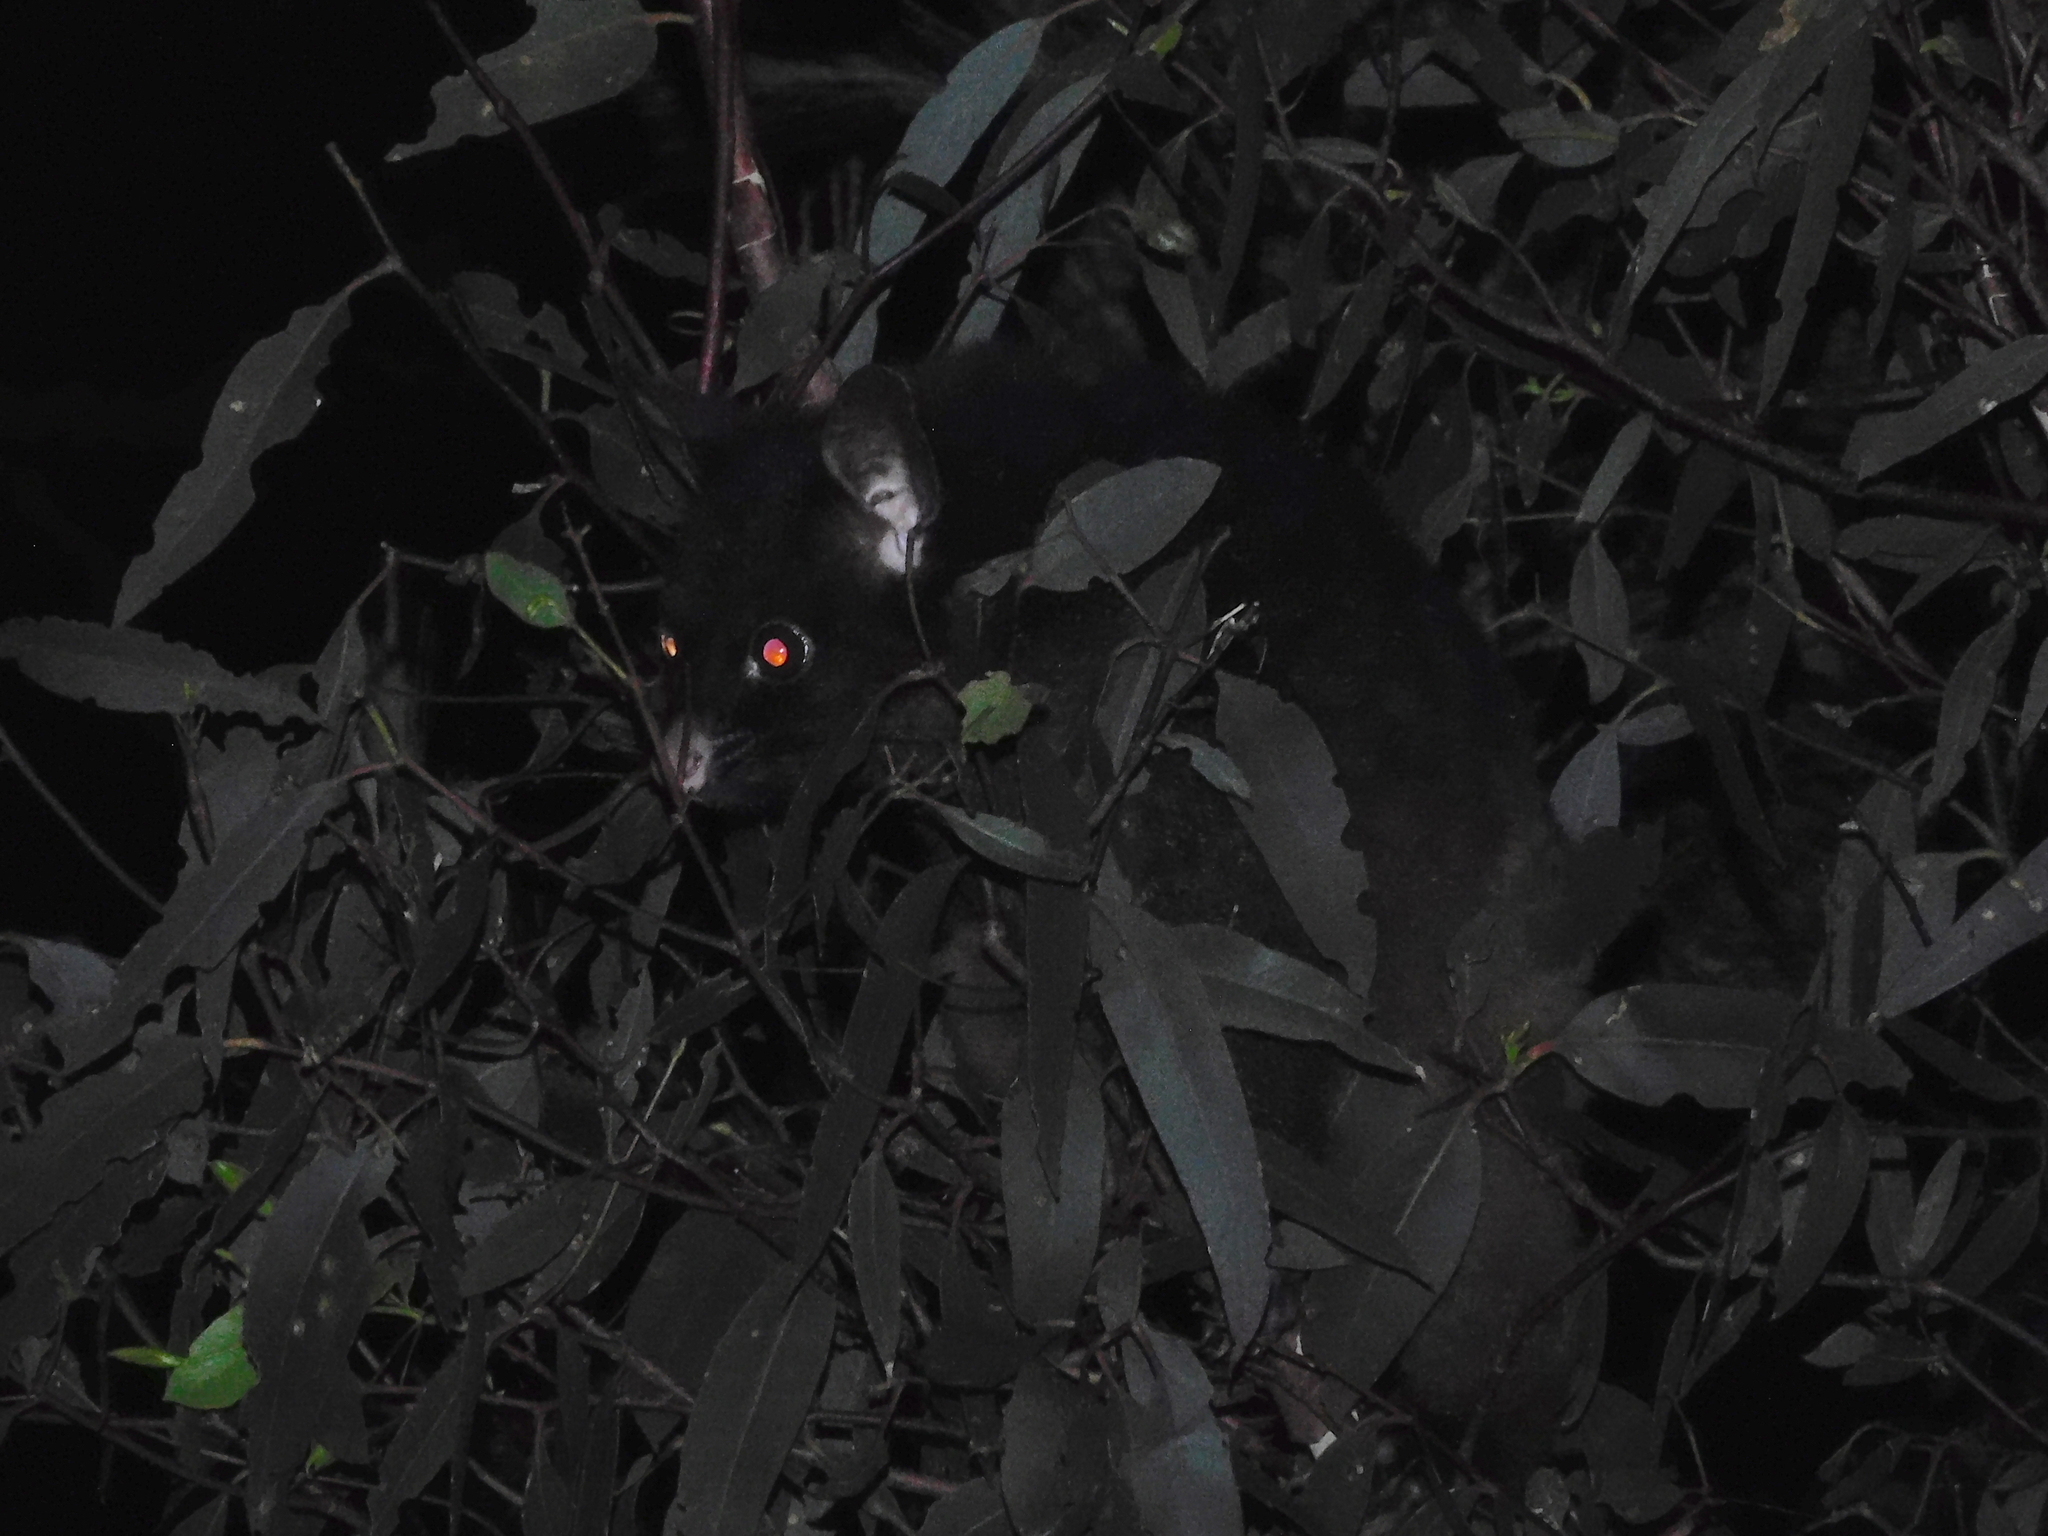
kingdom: Animalia
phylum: Chordata
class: Mammalia
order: Diprotodontia
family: Phalangeridae
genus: Trichosurus
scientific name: Trichosurus vulpecula
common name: Common brushtail
